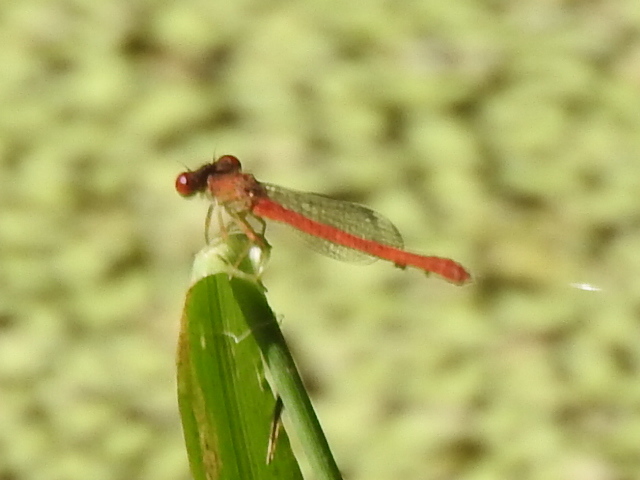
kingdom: Animalia
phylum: Arthropoda
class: Insecta
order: Odonata
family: Coenagrionidae
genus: Telebasis
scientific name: Telebasis salva
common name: Desert firetail
